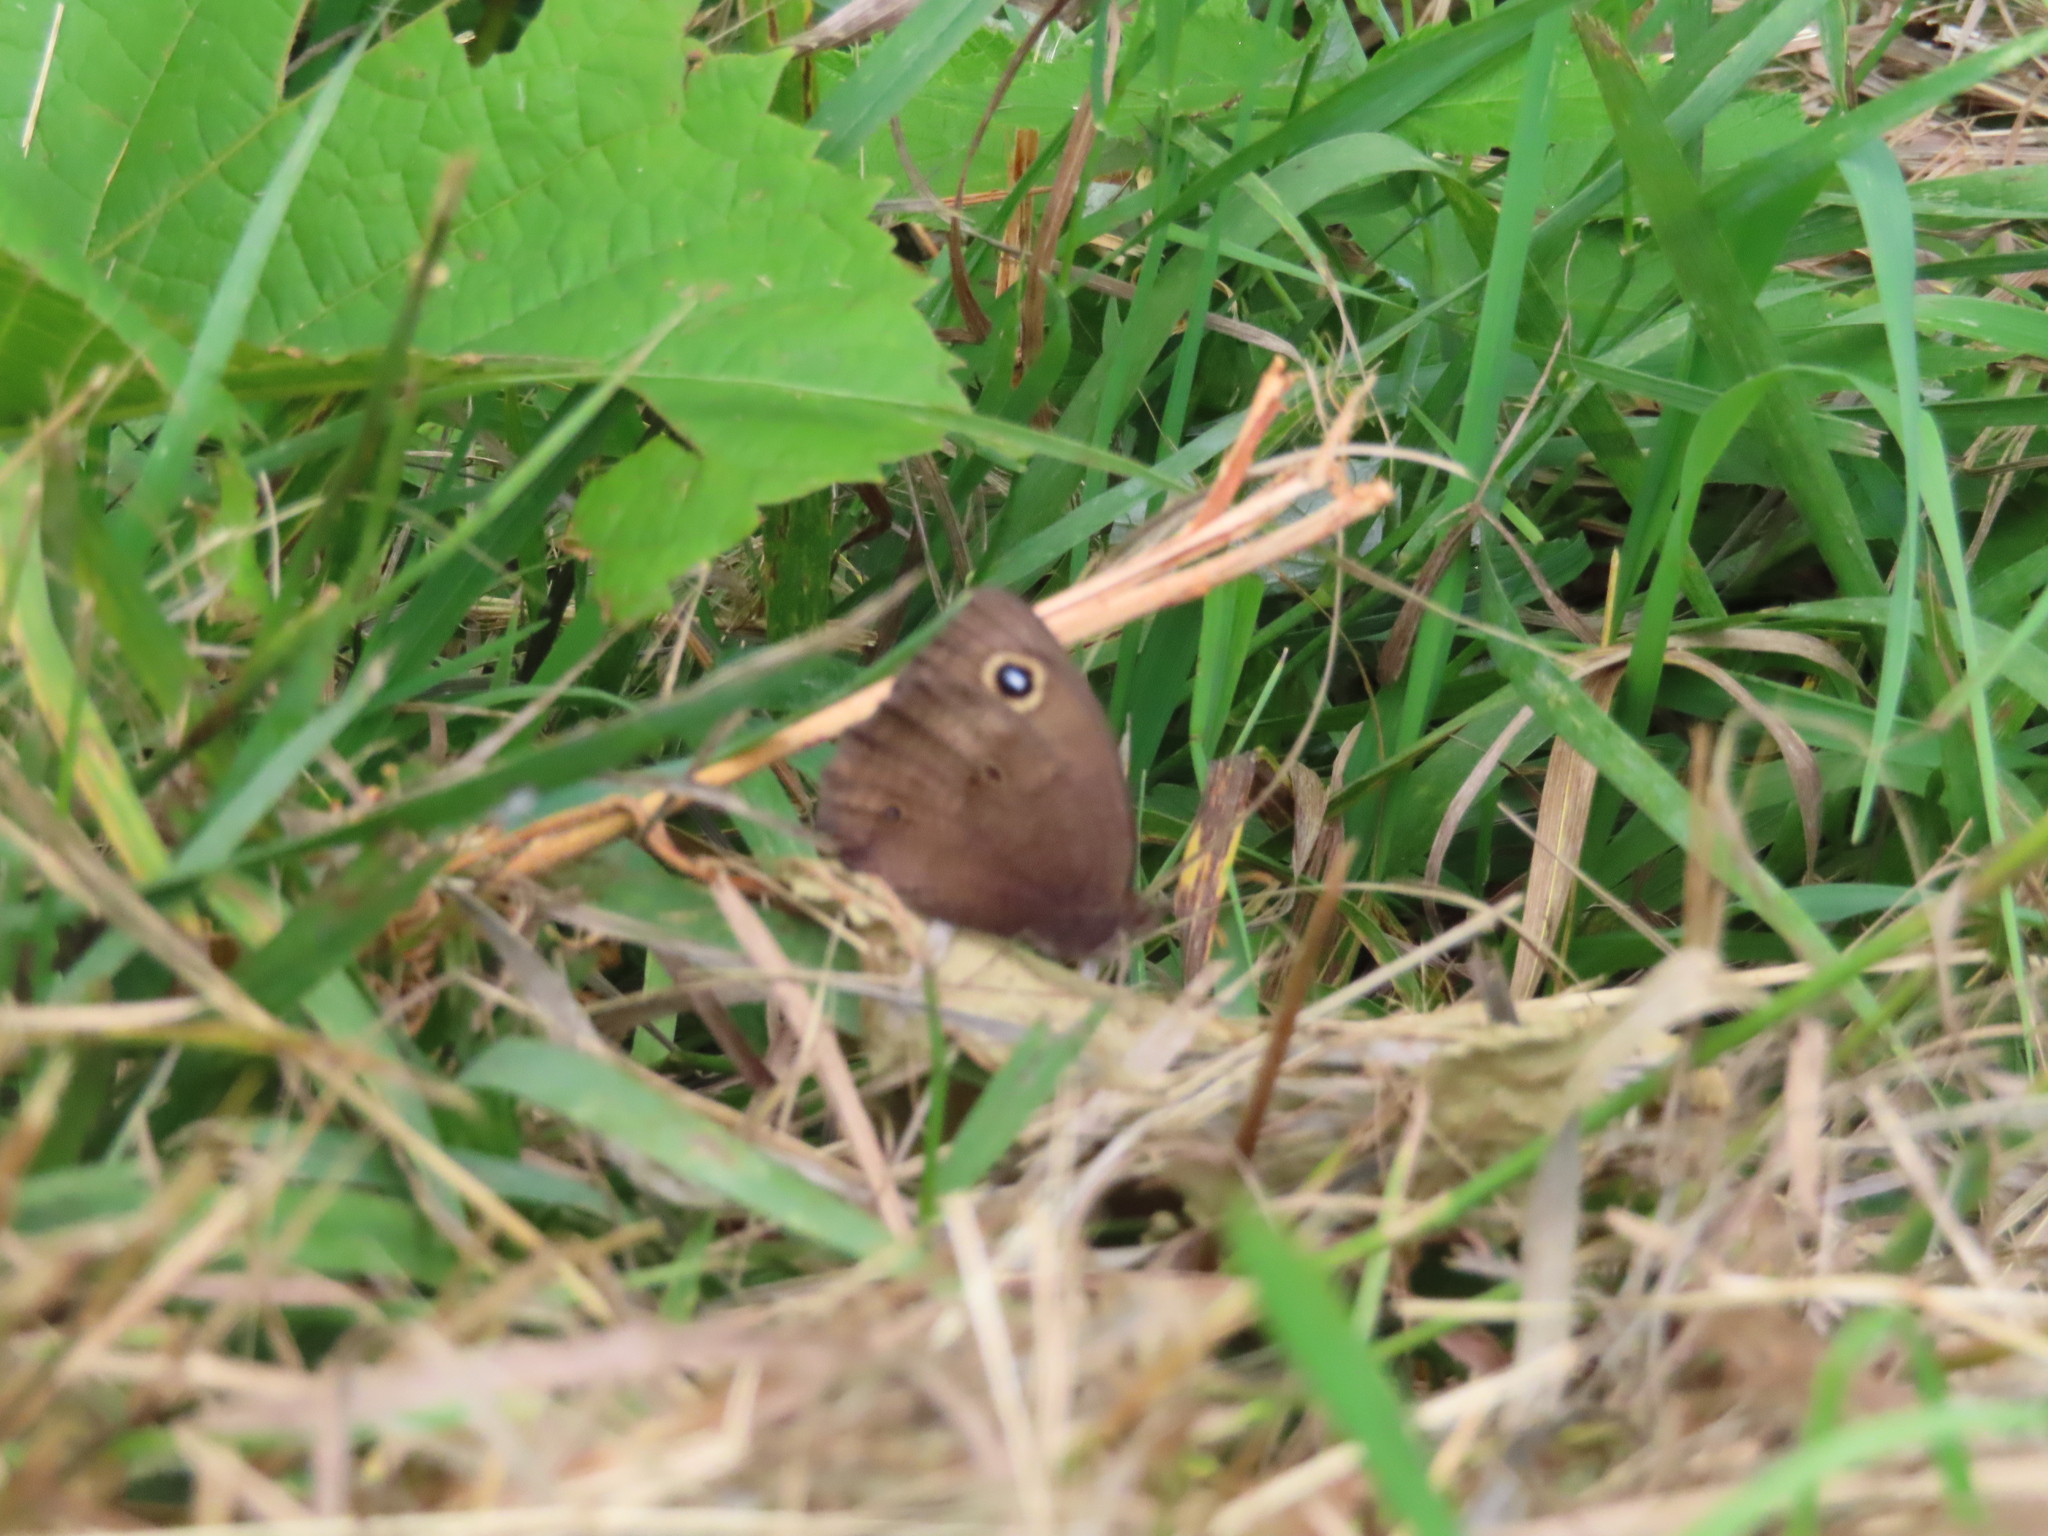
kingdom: Animalia
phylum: Arthropoda
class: Insecta
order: Lepidoptera
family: Nymphalidae
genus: Cercyonis
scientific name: Cercyonis pegala
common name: Common wood-nymph
